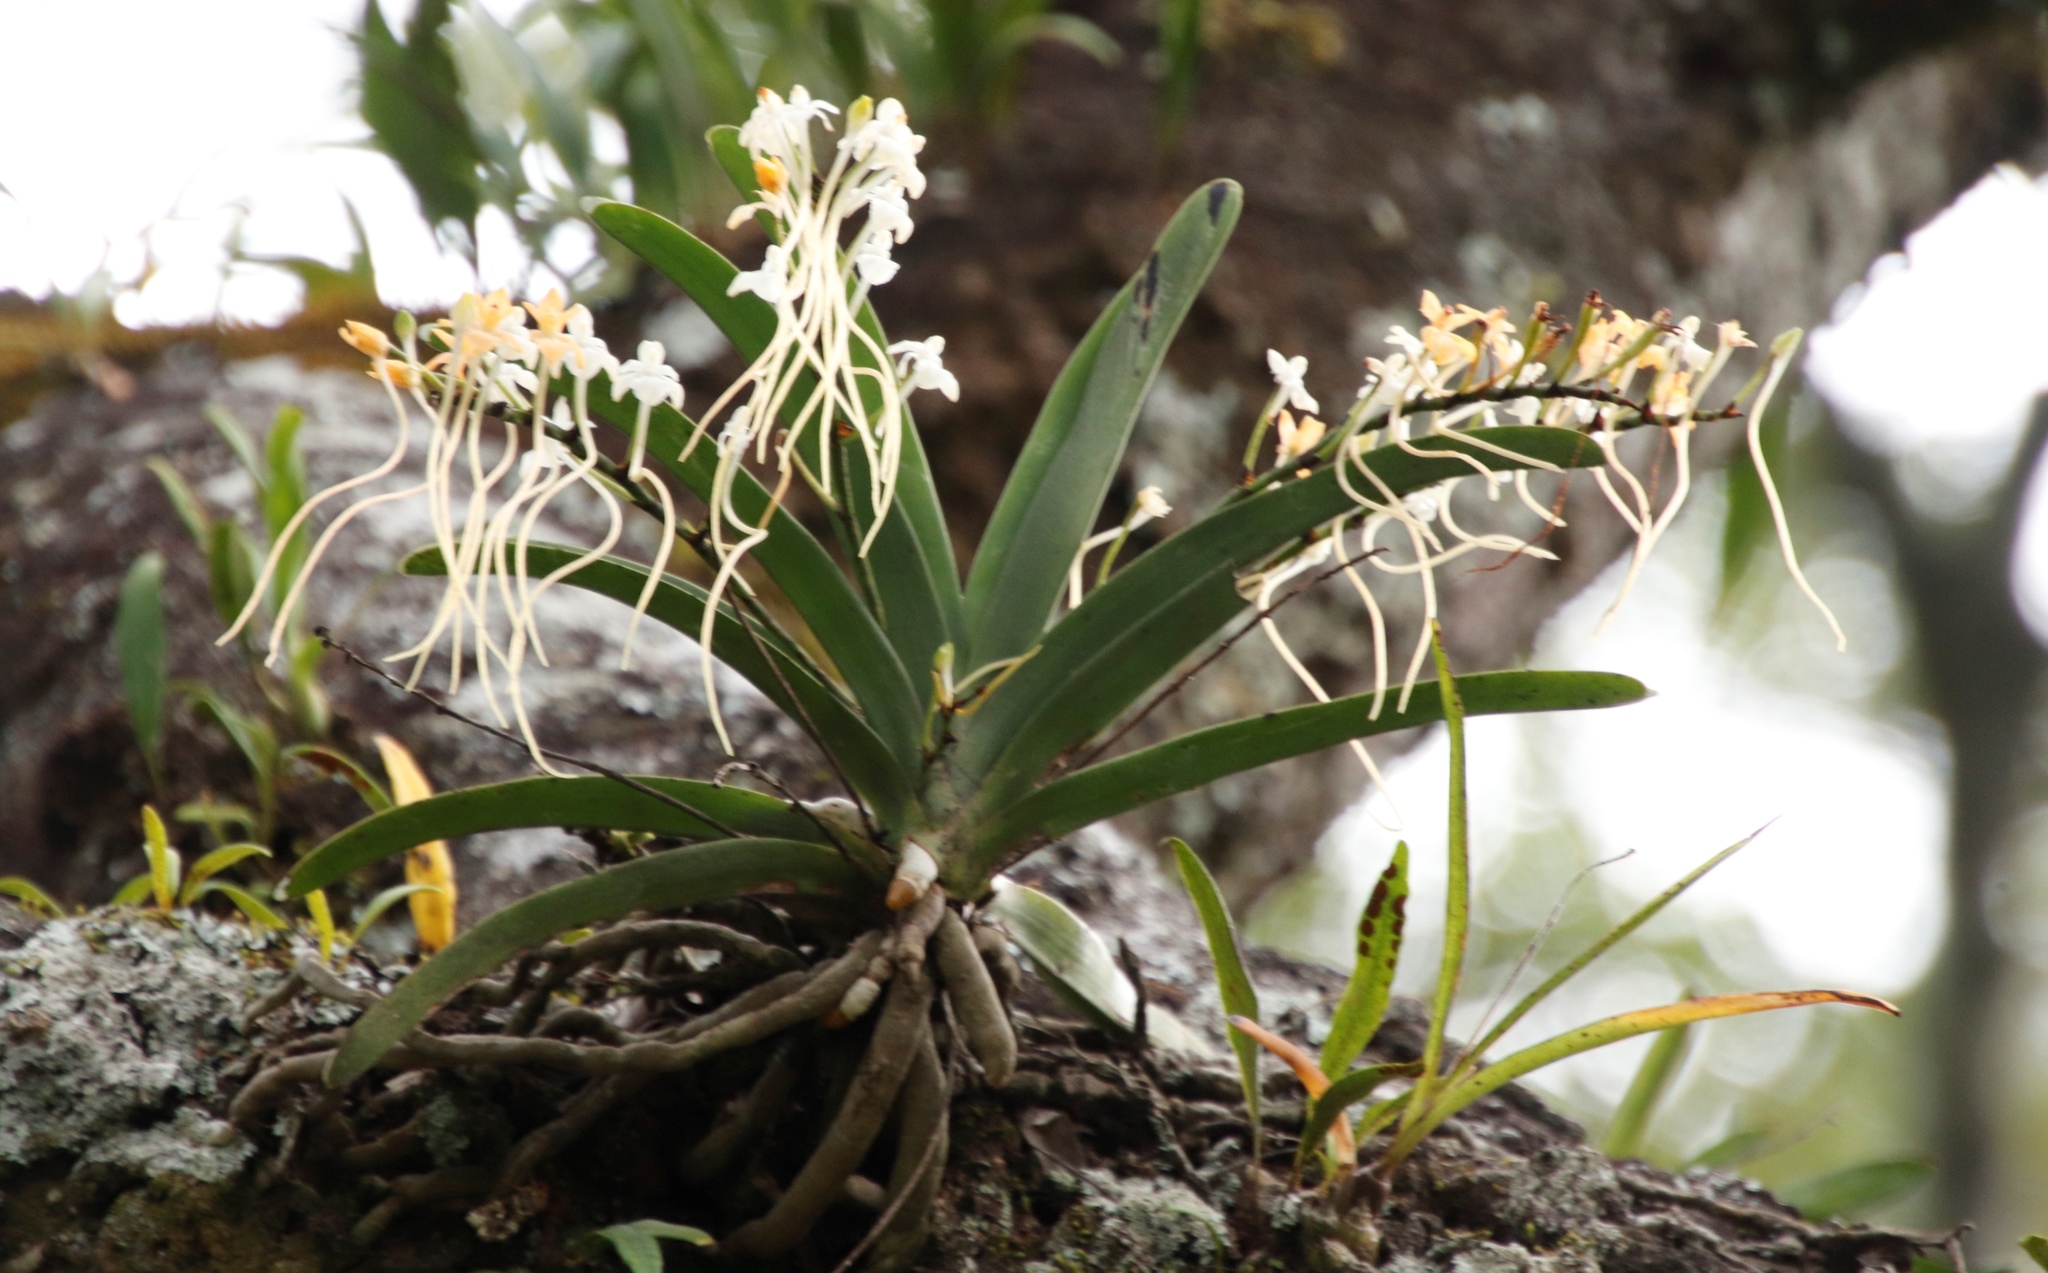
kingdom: Plantae
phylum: Tracheophyta
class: Liliopsida
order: Asparagales
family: Orchidaceae
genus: Rangaeris
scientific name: Rangaeris muscicola
